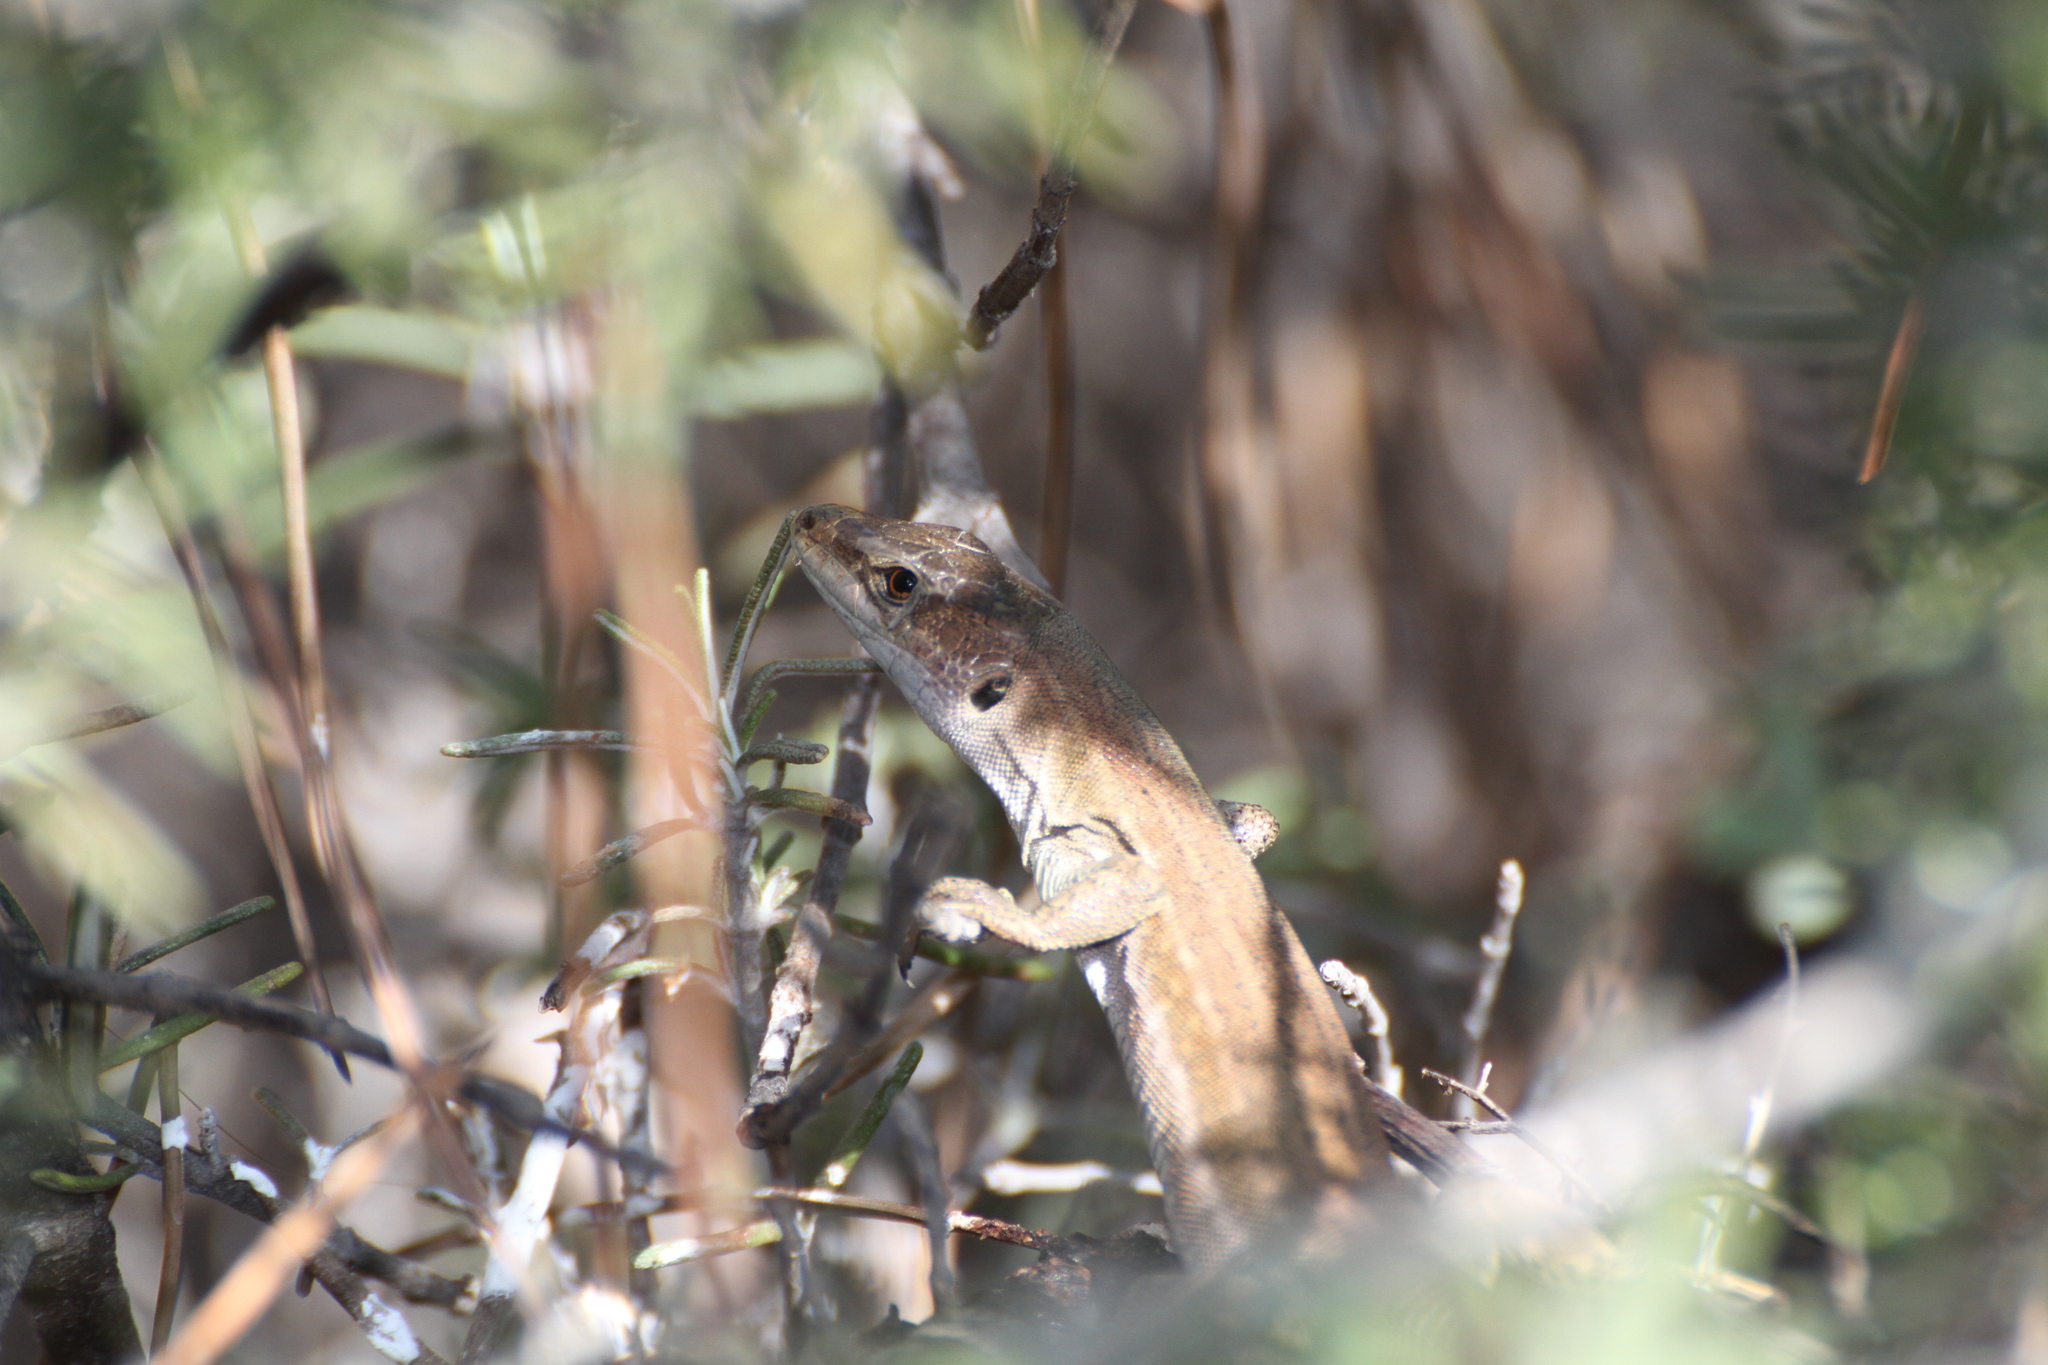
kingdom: Animalia
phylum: Chordata
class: Squamata
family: Lacertidae
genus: Podarcis
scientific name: Podarcis siculus
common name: Italian wall lizard
